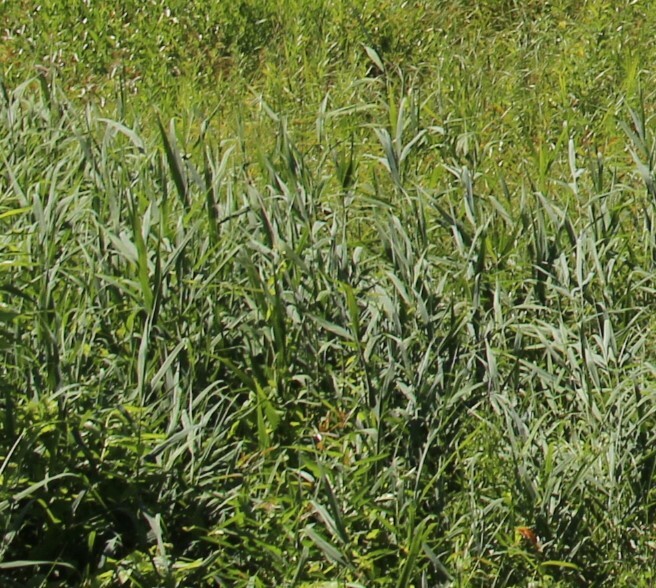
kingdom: Plantae
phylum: Tracheophyta
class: Liliopsida
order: Poales
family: Poaceae
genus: Phragmites
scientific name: Phragmites australis
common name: Common reed
